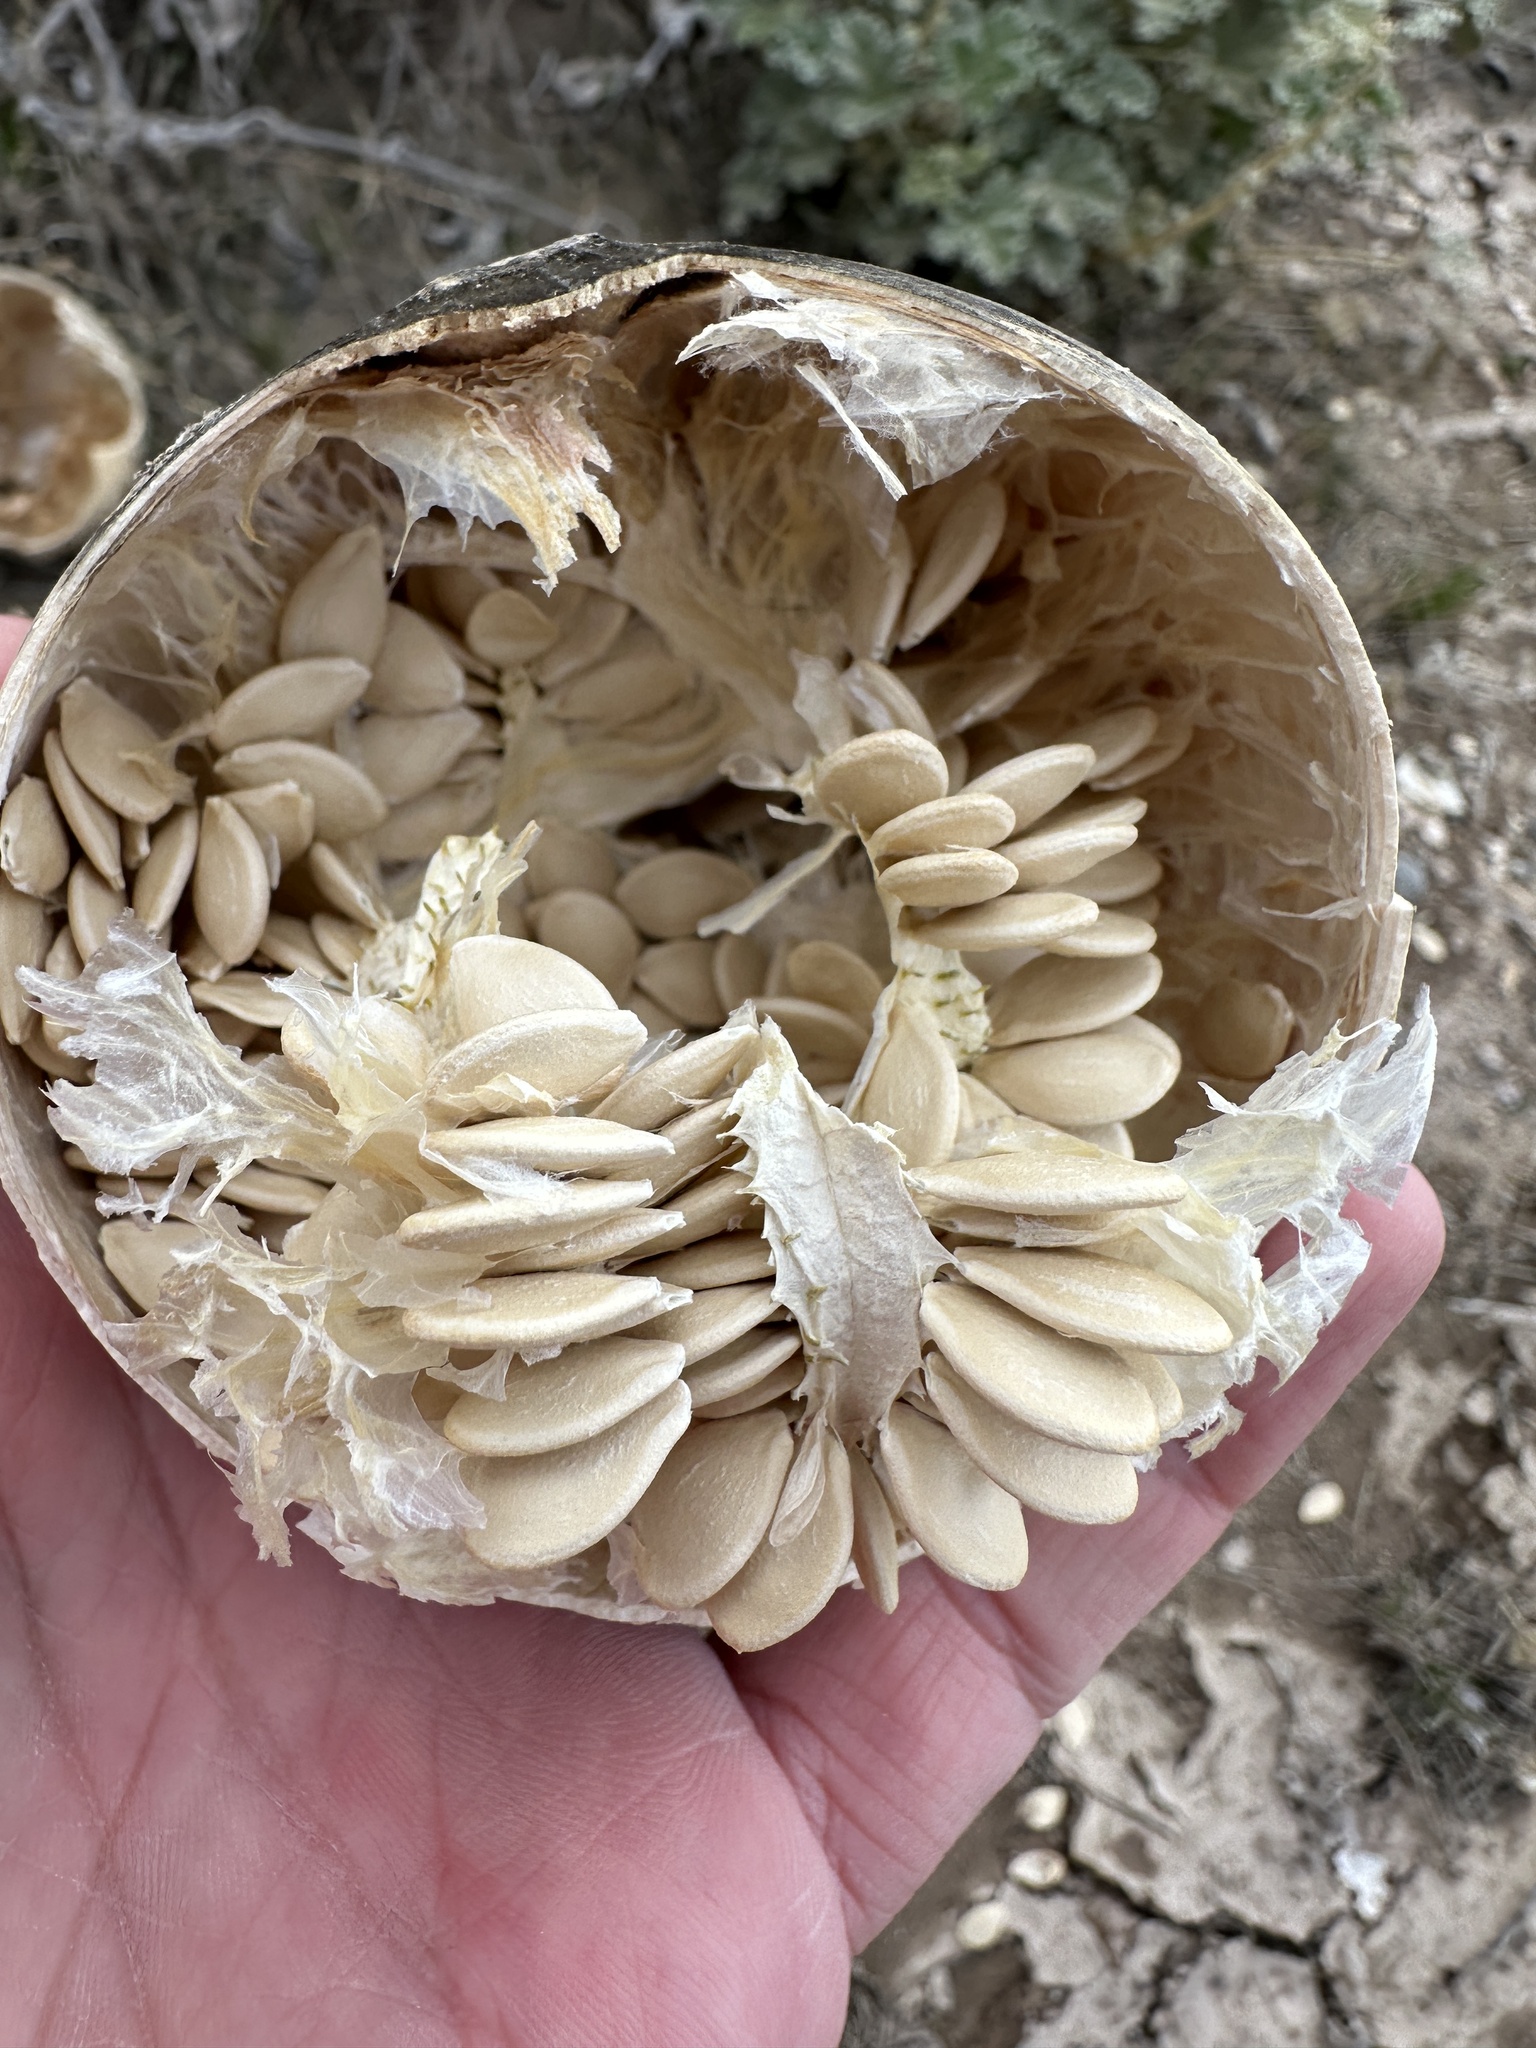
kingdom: Plantae
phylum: Tracheophyta
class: Magnoliopsida
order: Cucurbitales
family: Cucurbitaceae
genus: Cucurbita
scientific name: Cucurbita palmata
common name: Coyote-melon
